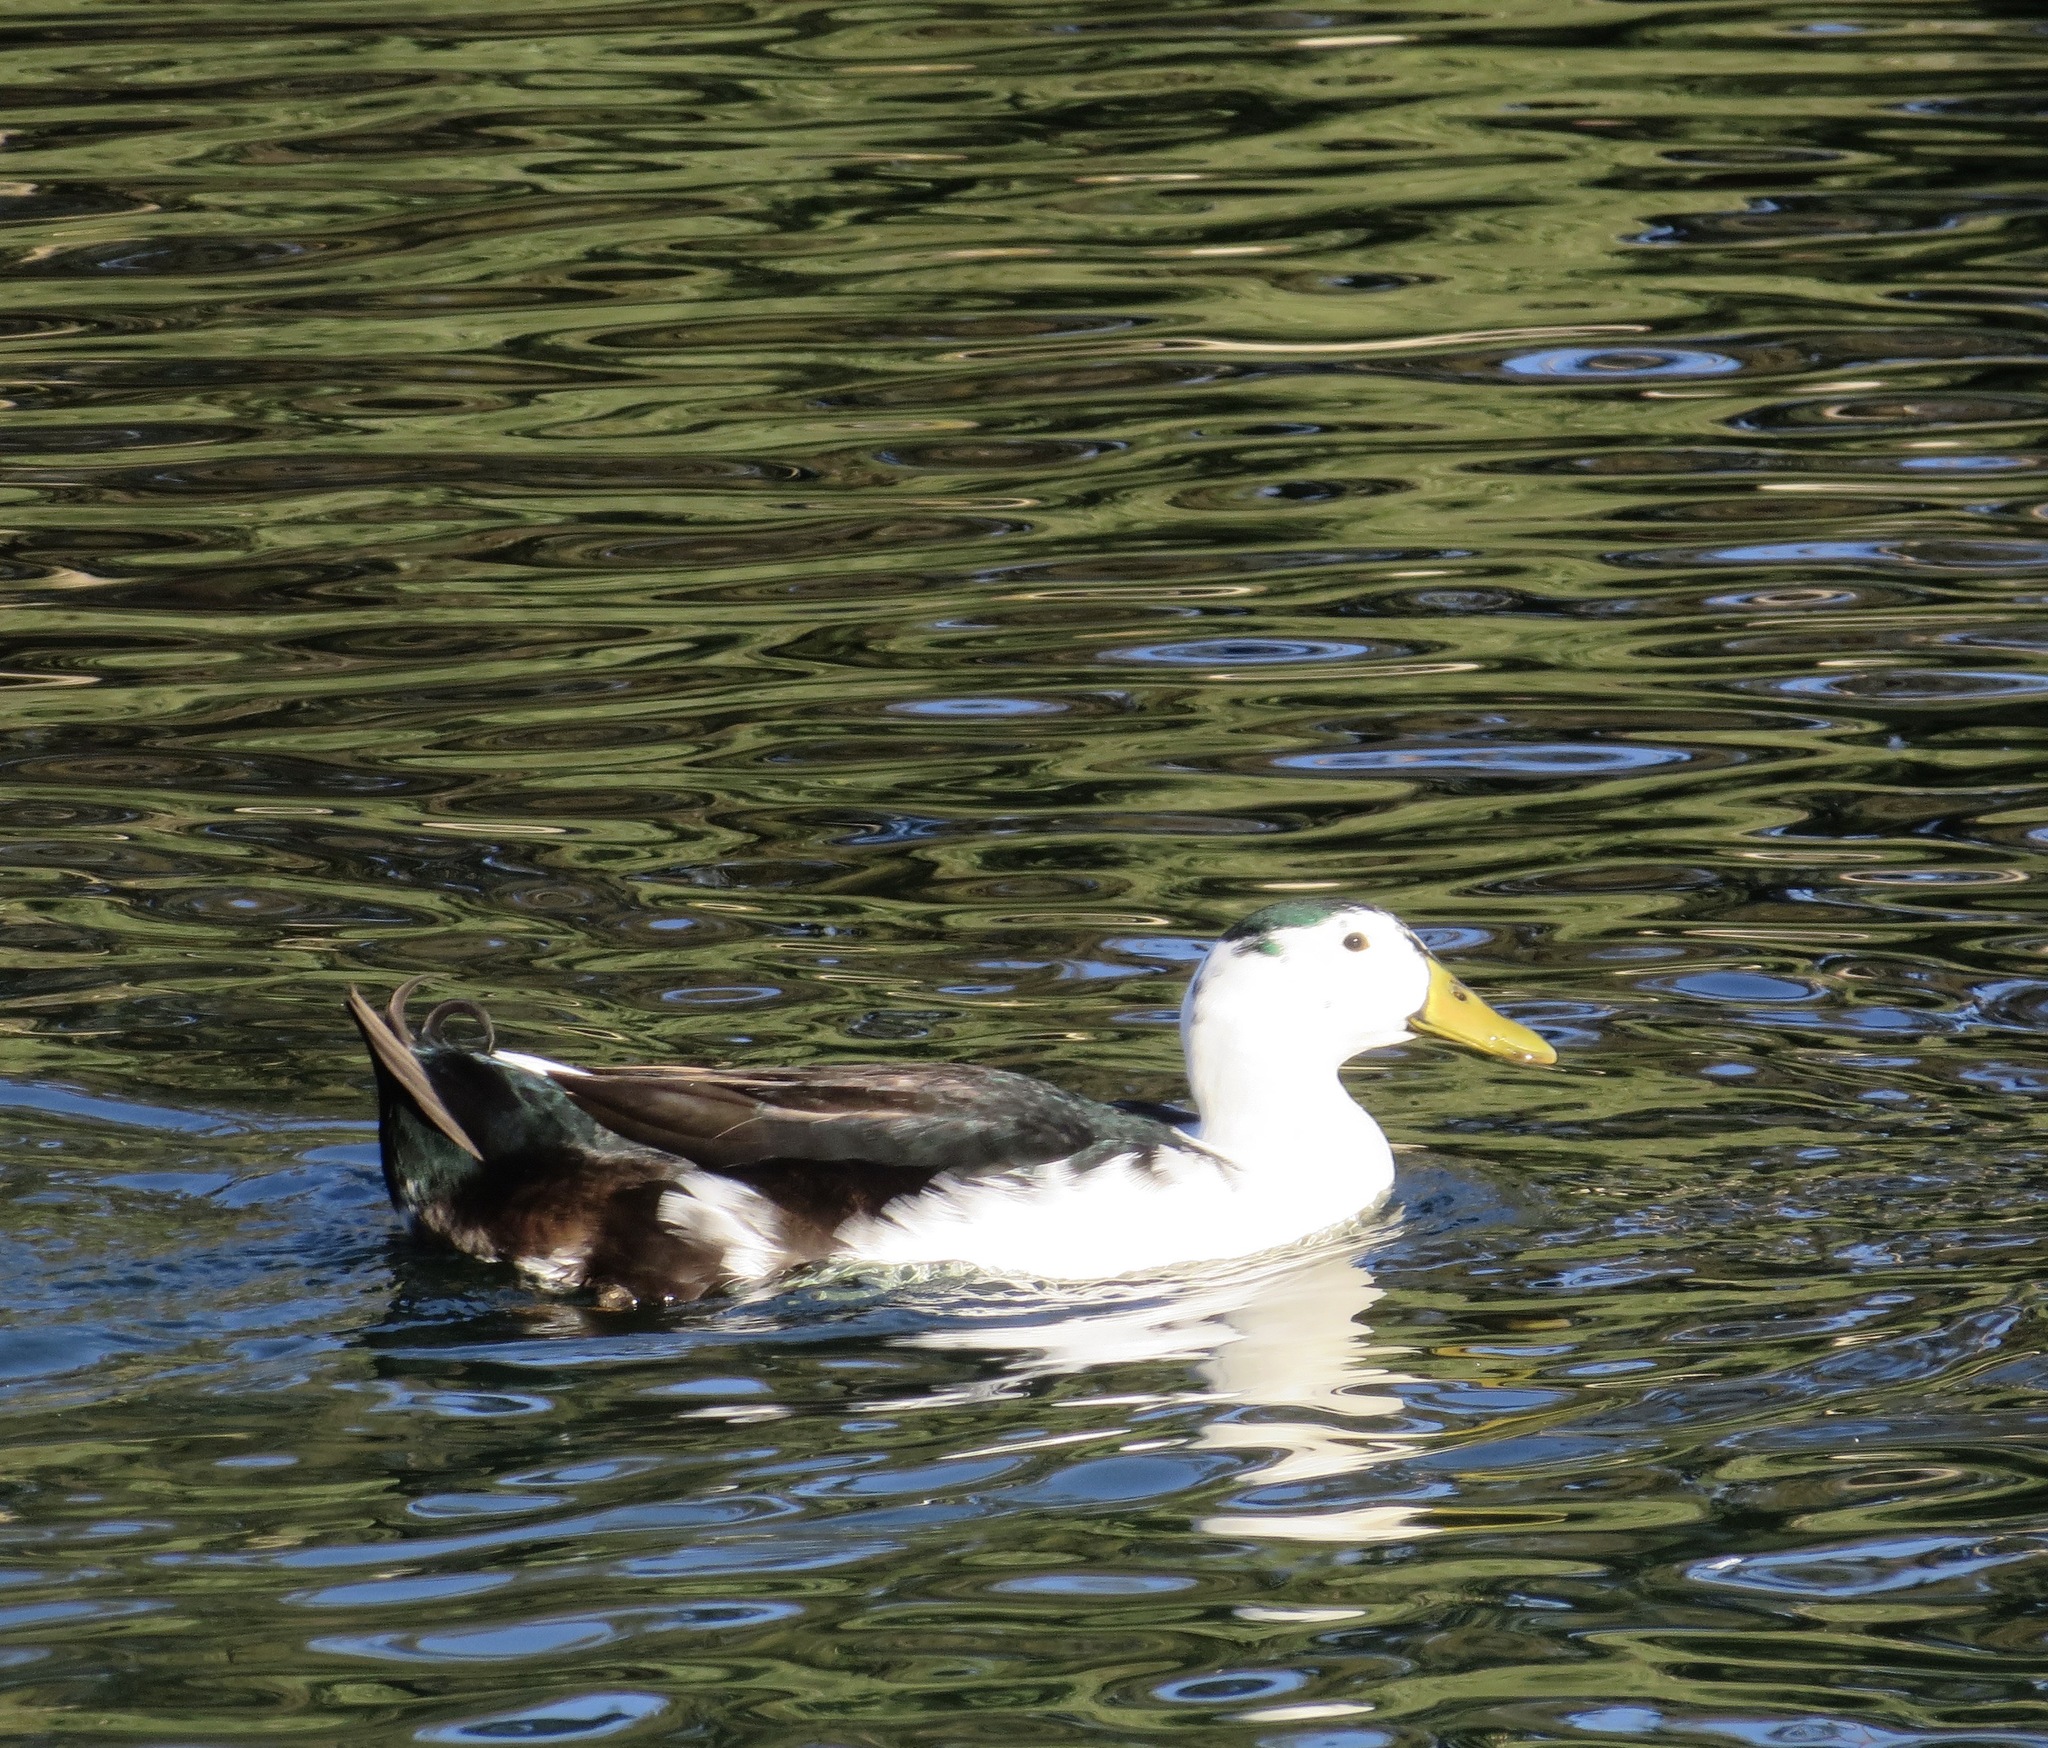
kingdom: Animalia
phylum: Chordata
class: Aves
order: Anseriformes
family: Anatidae
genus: Anas
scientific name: Anas platyrhynchos
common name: Mallard
